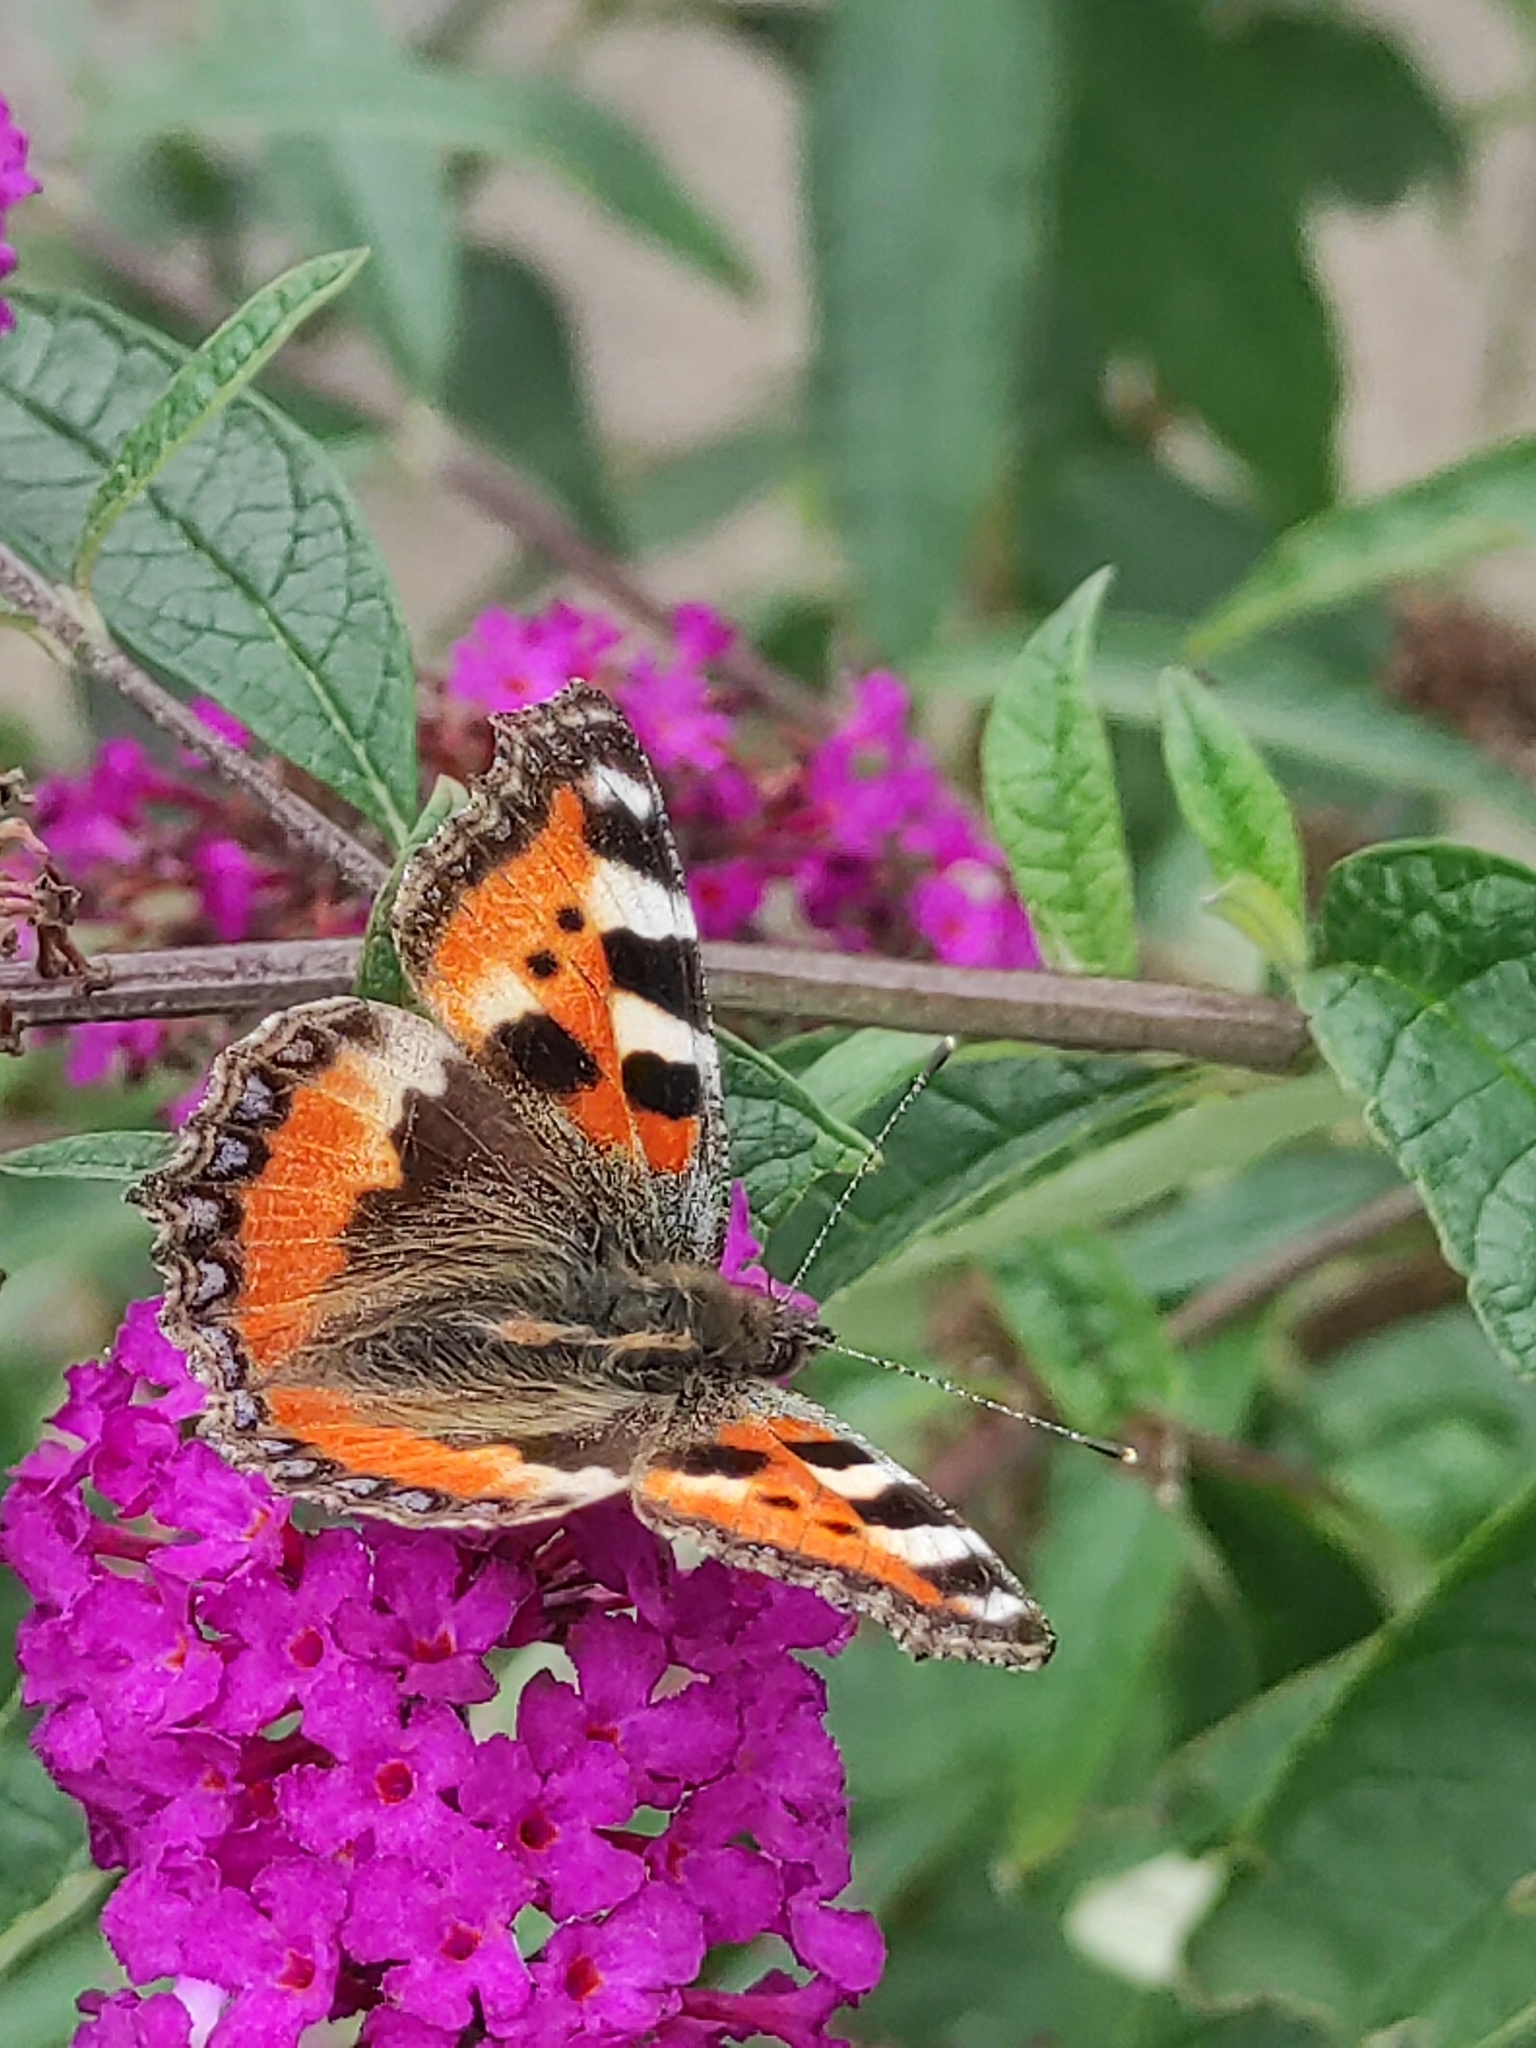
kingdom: Animalia
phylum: Arthropoda
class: Insecta
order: Lepidoptera
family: Nymphalidae
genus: Aglais
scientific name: Aglais urticae
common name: Small tortoiseshell
